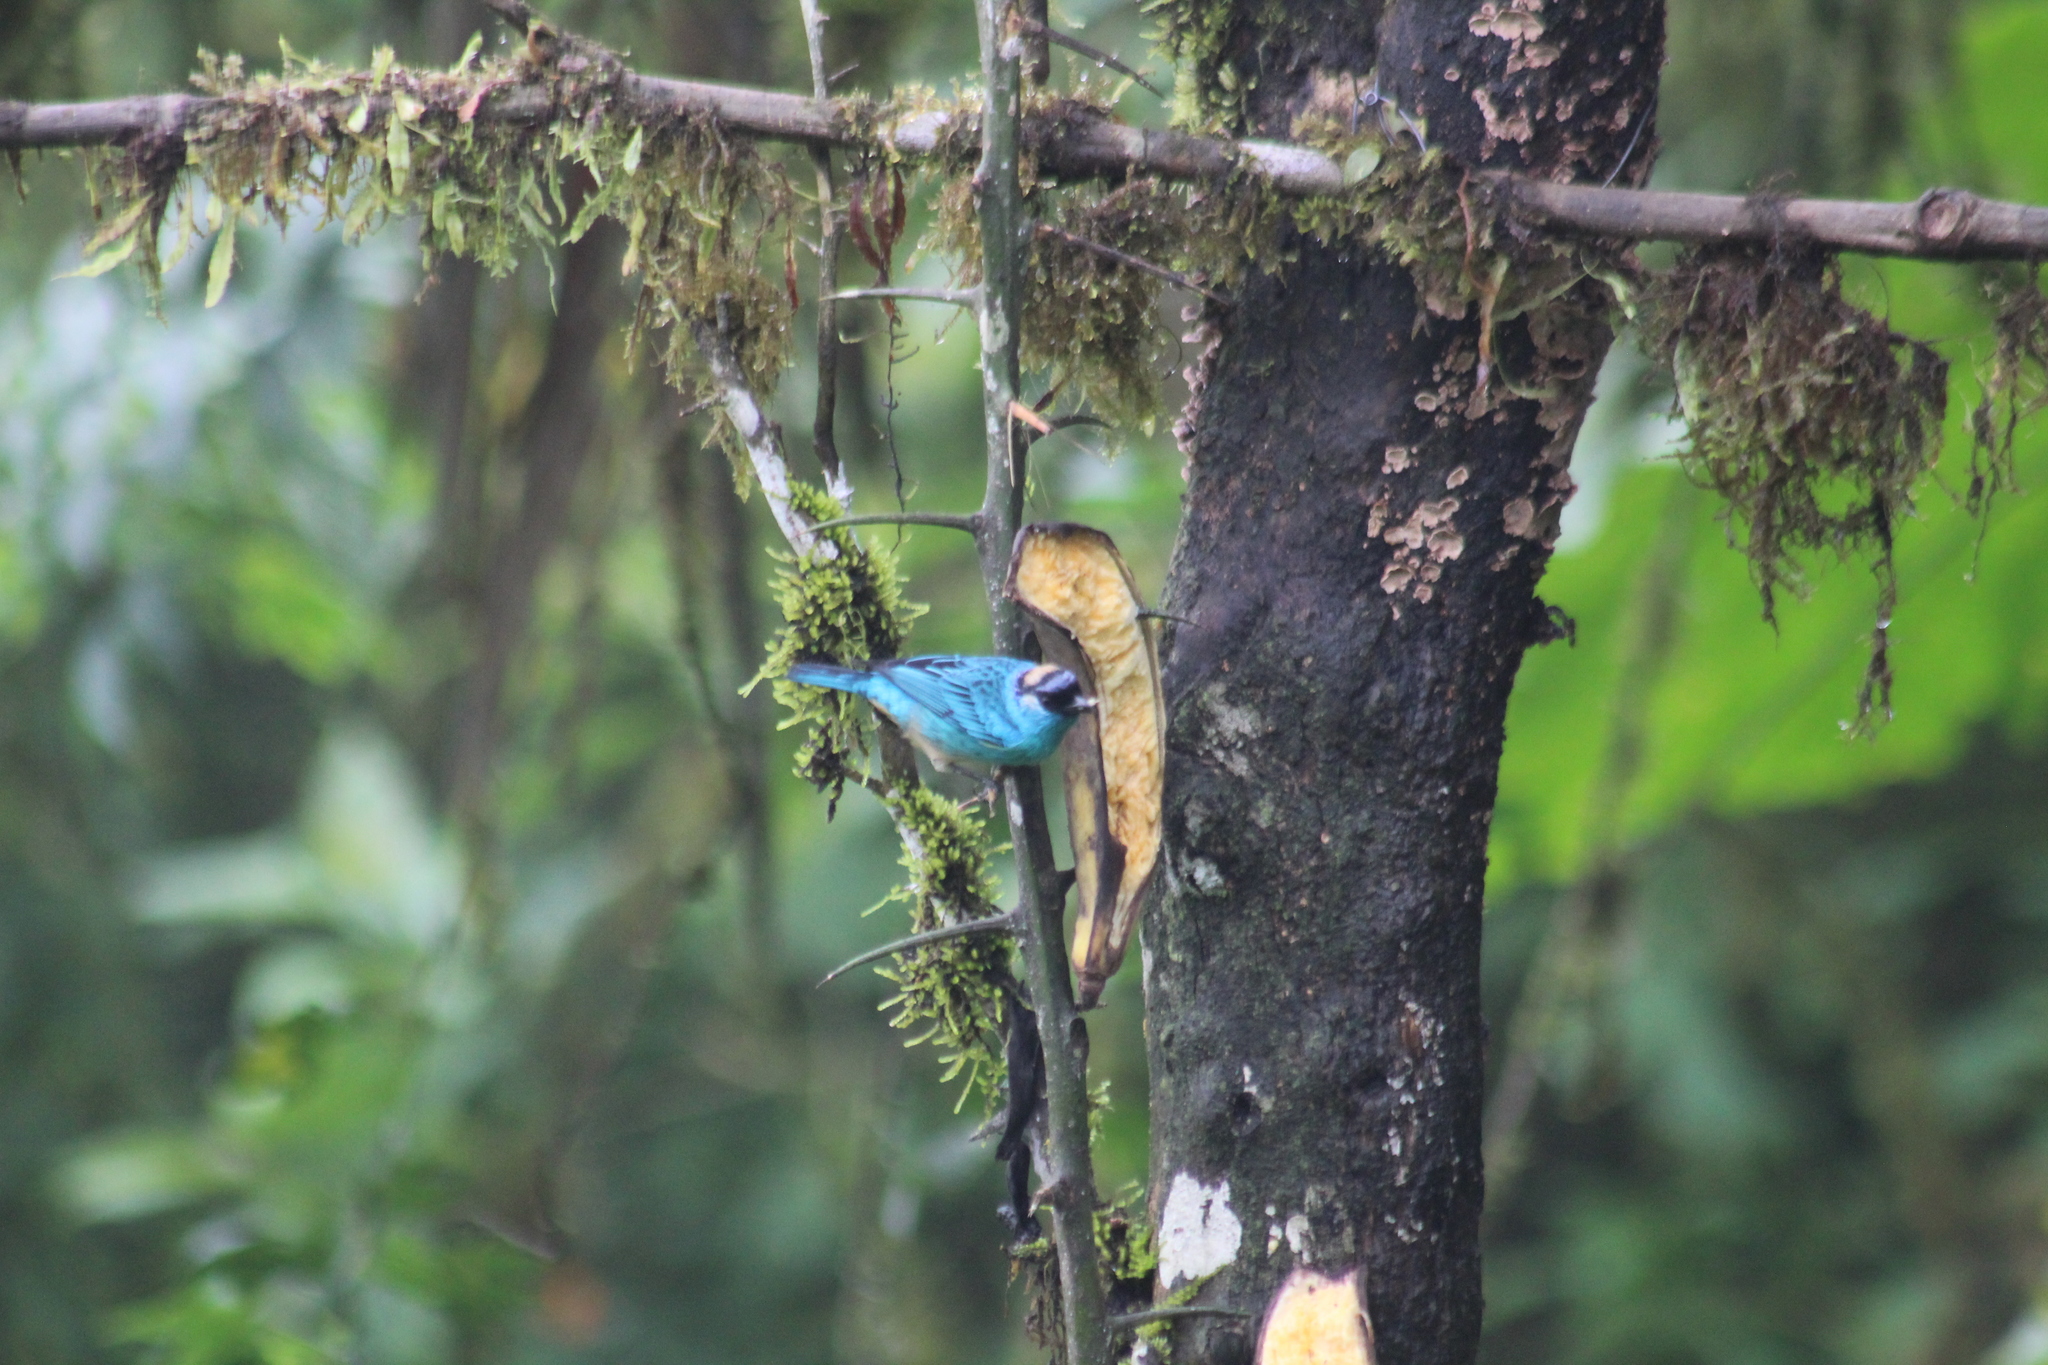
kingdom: Animalia
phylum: Chordata
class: Aves
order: Passeriformes
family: Thraupidae
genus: Chalcothraupis
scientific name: Chalcothraupis ruficervix
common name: Golden-naped tanager
